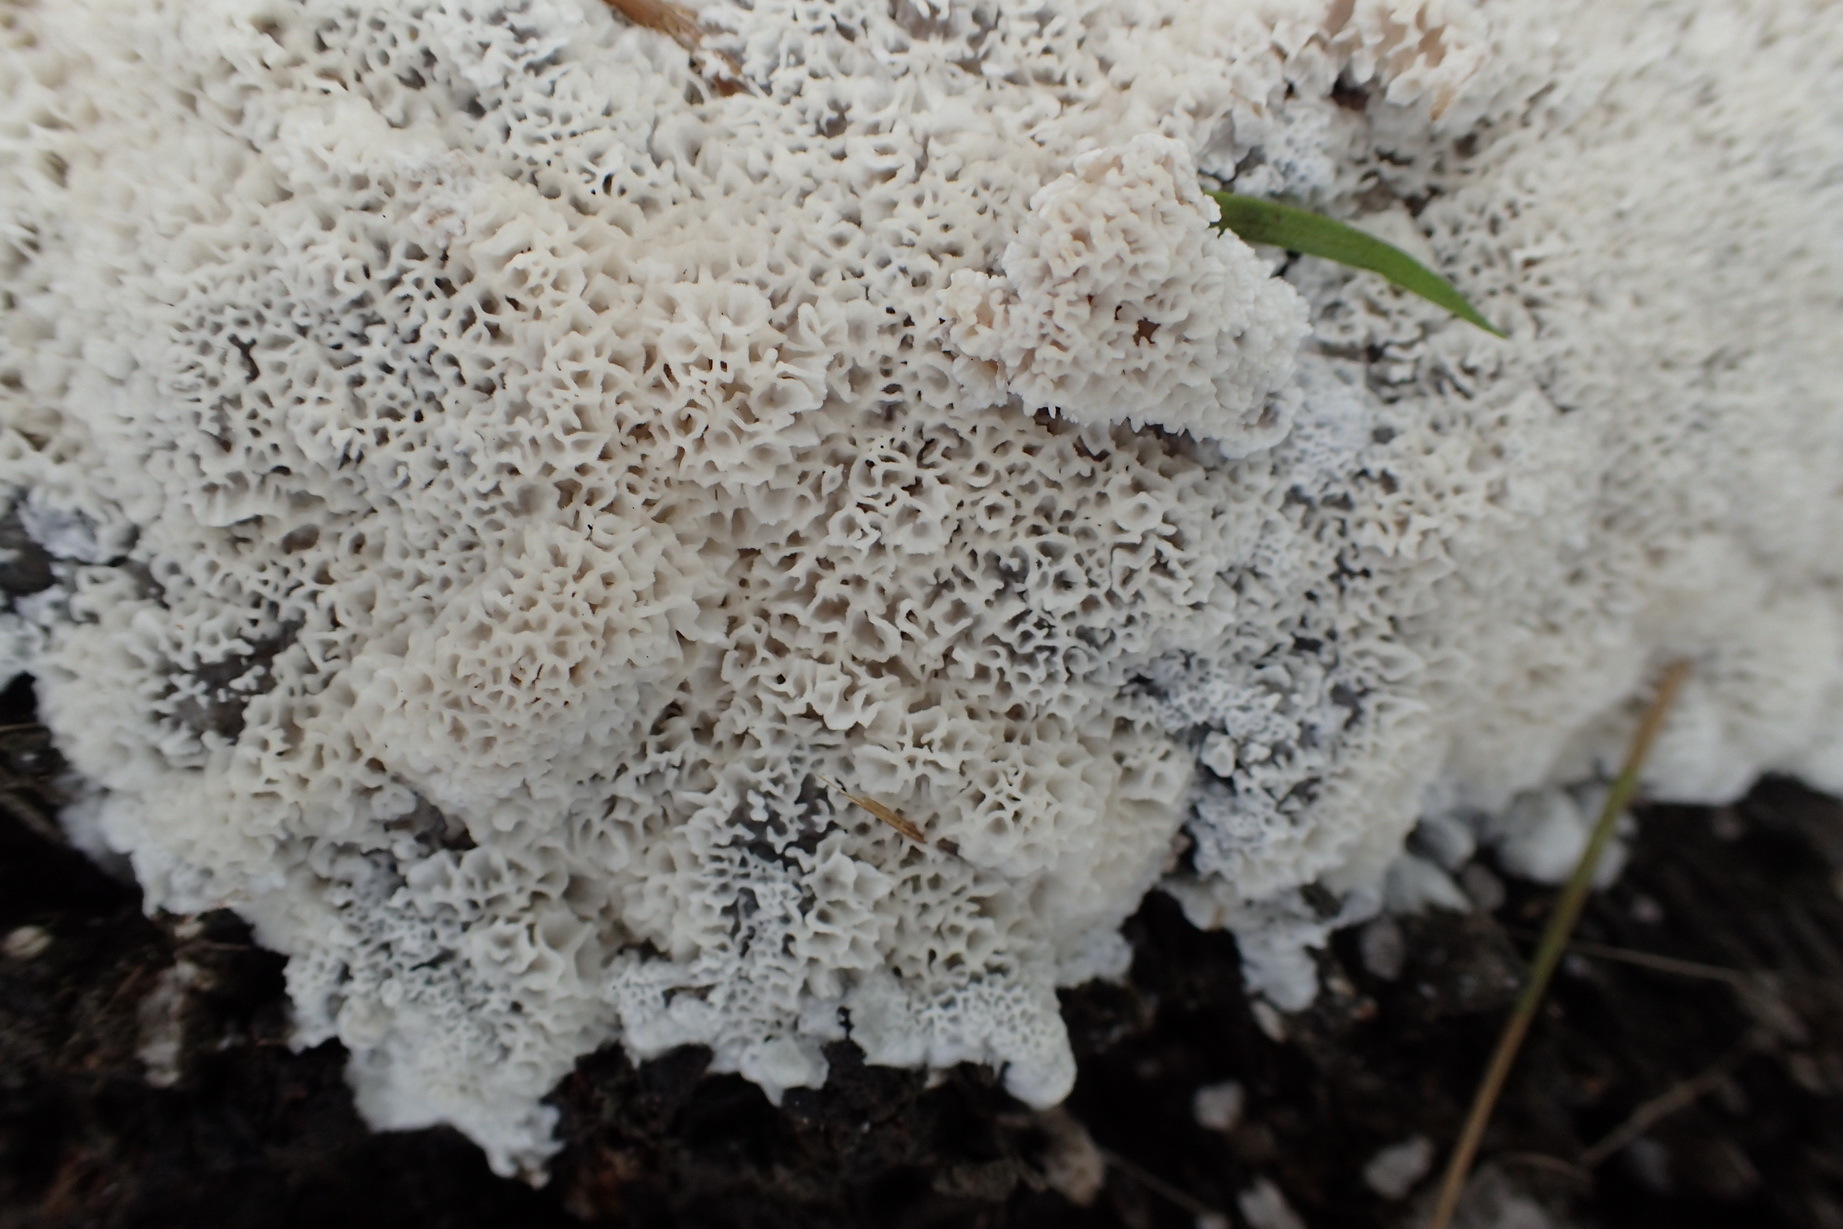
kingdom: Fungi
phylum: Basidiomycota
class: Agaricomycetes
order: Polyporales
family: Podoscyphaceae
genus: Abortiporus
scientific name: Abortiporus biennis
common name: Blushing rosette
